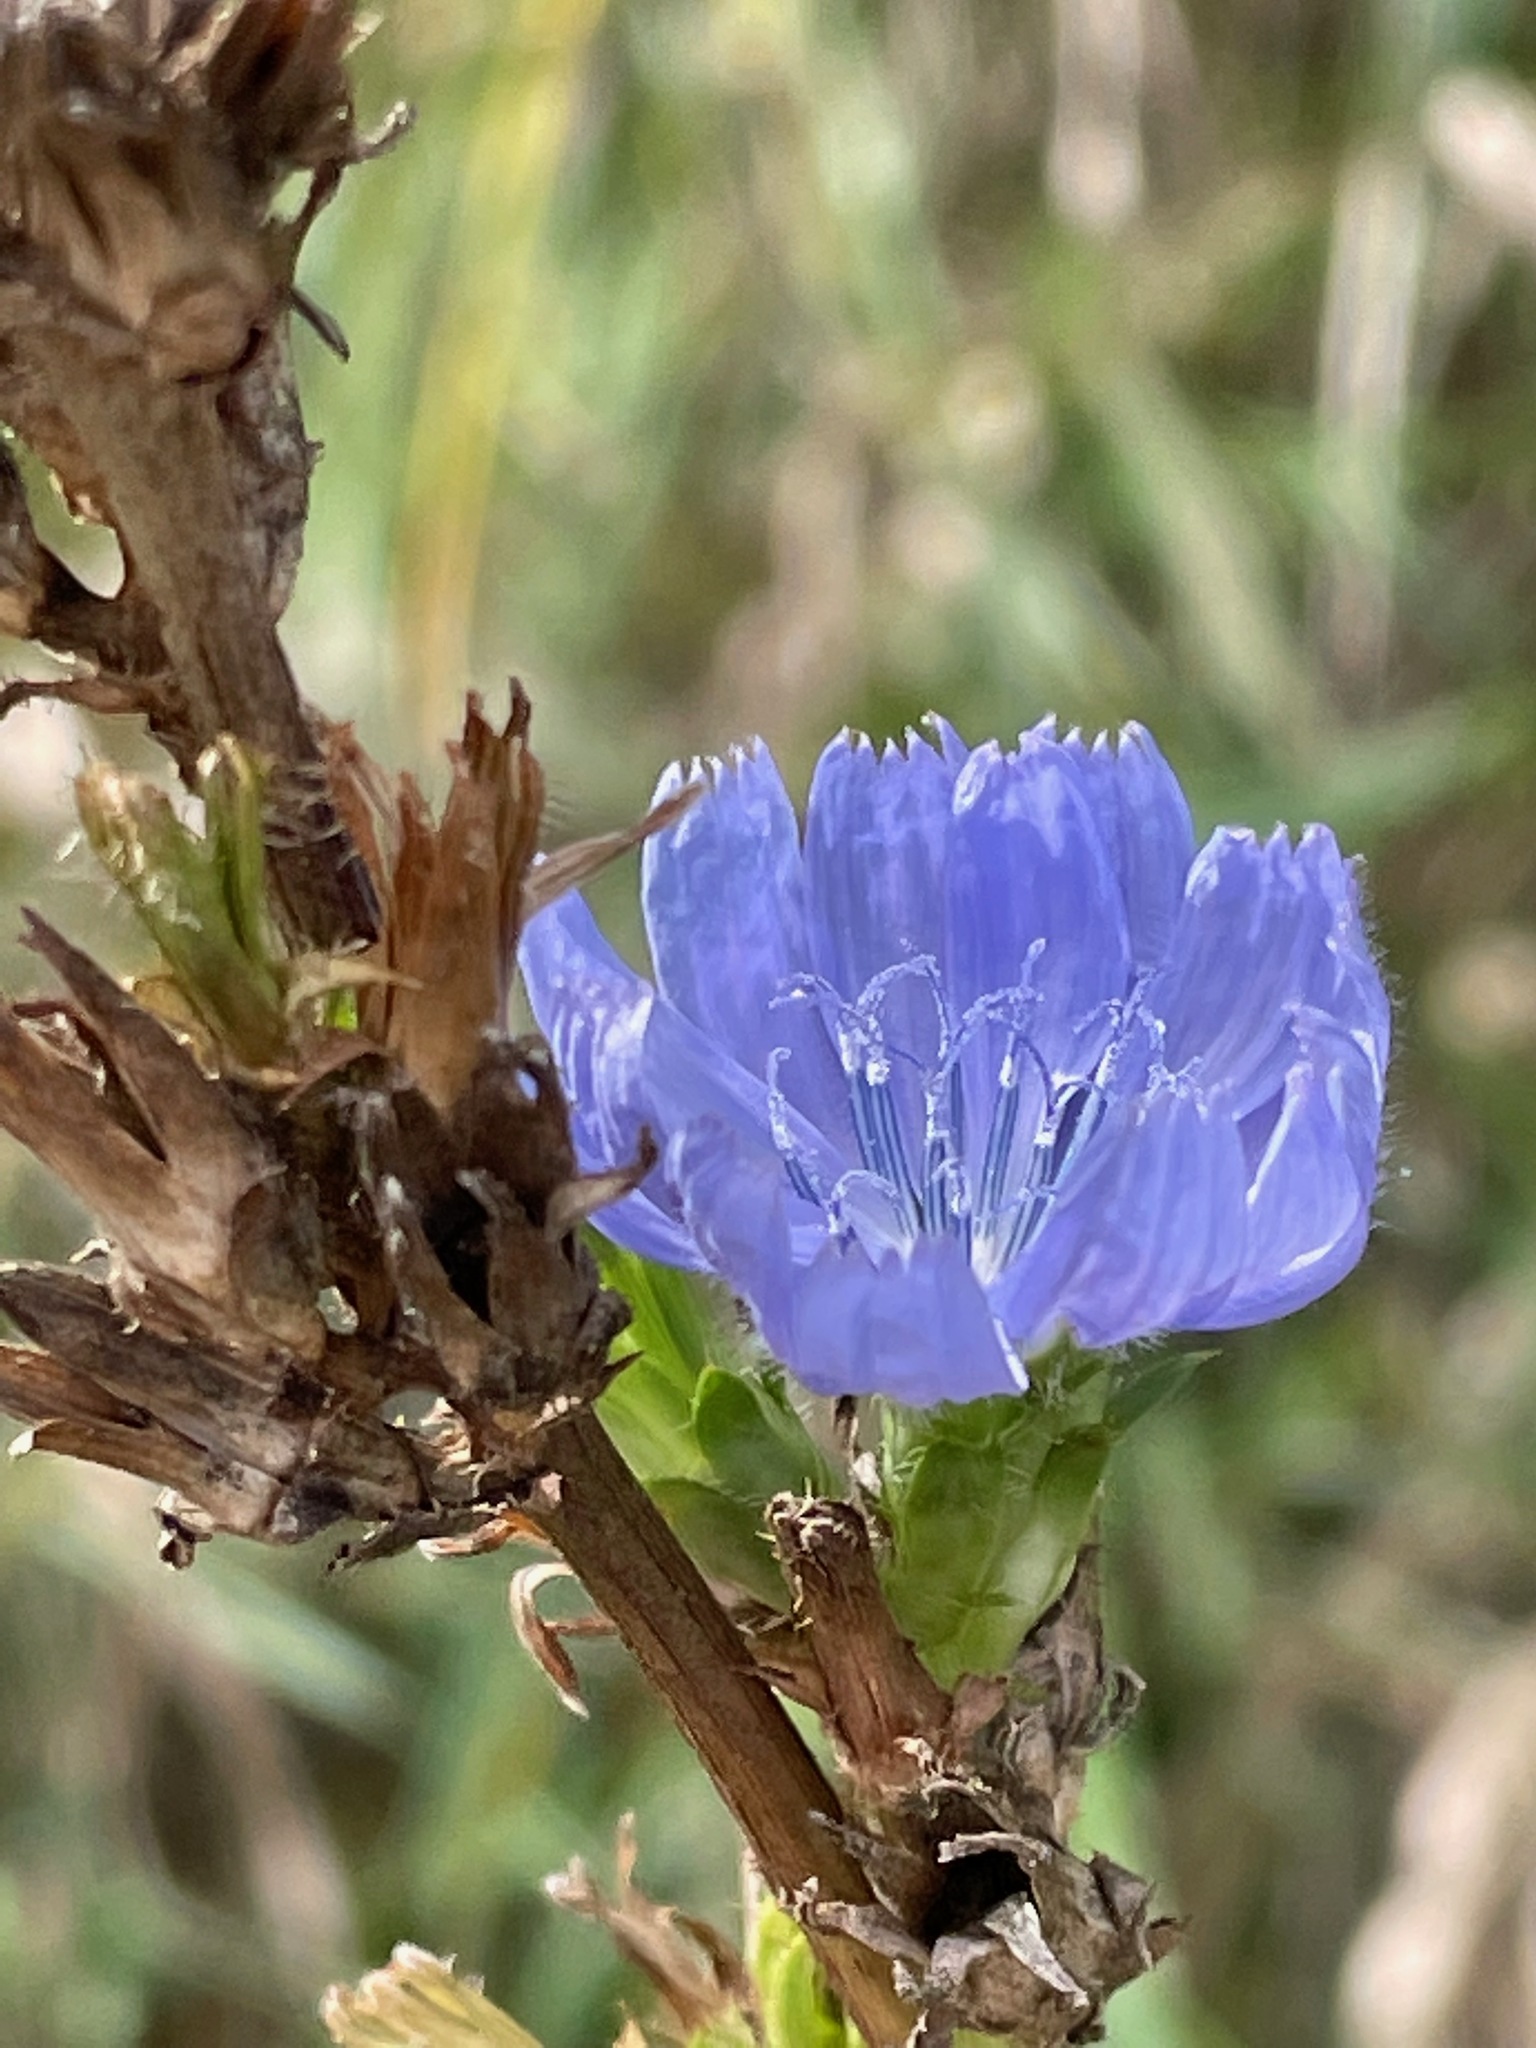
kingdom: Plantae
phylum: Tracheophyta
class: Magnoliopsida
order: Asterales
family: Asteraceae
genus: Cichorium
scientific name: Cichorium intybus
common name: Chicory
